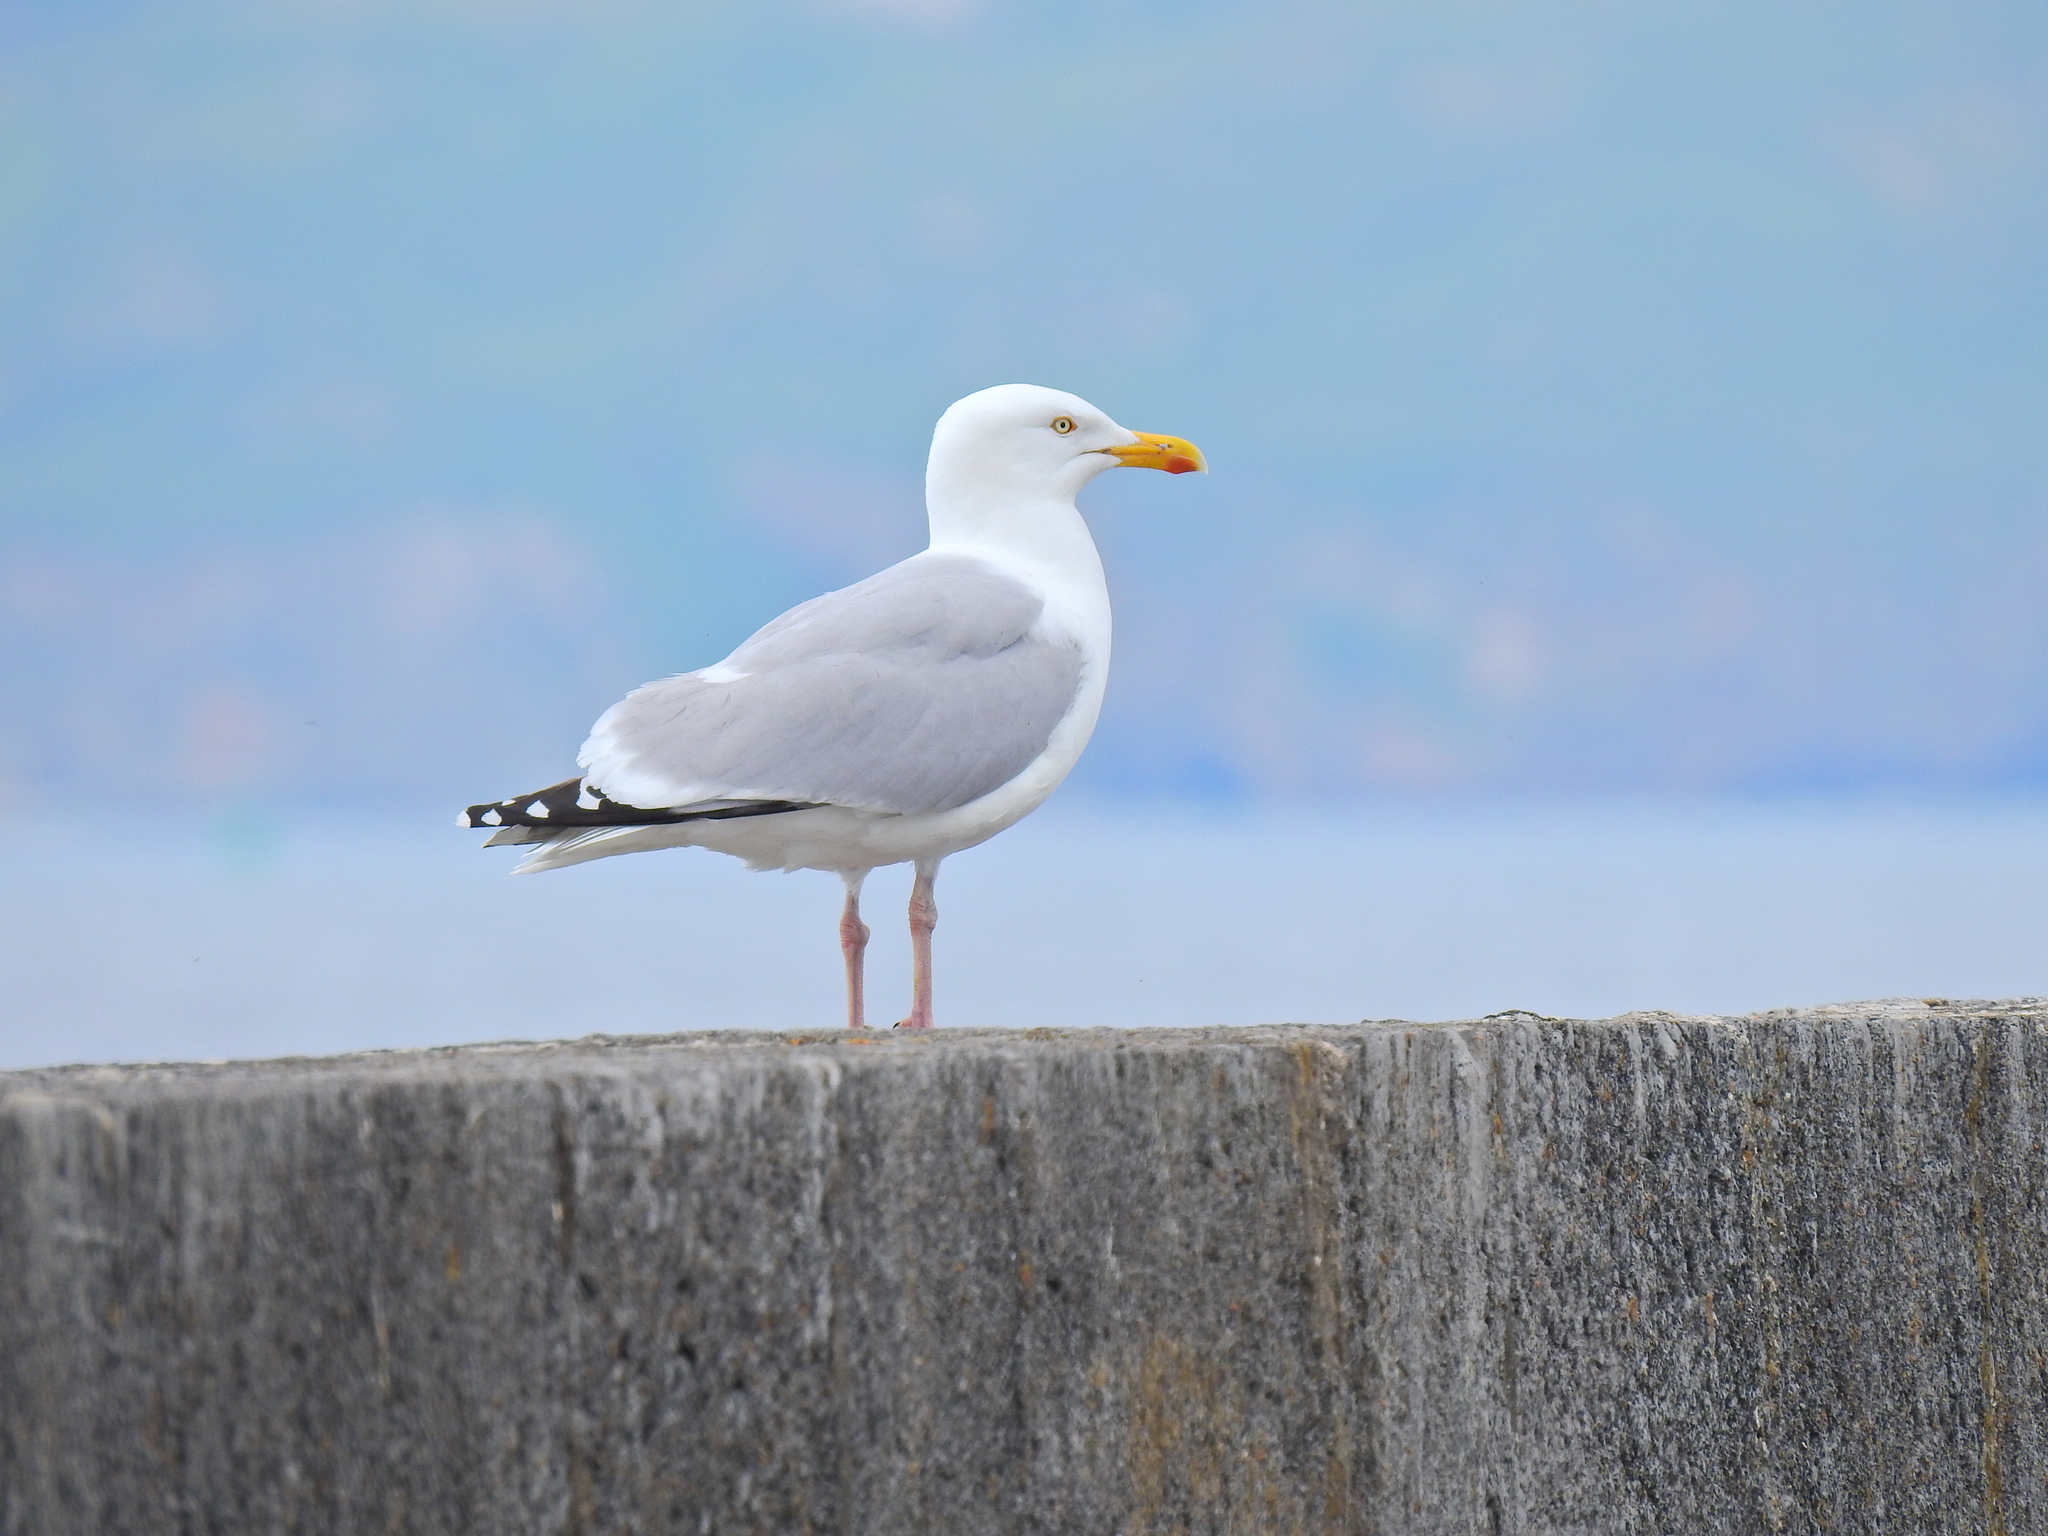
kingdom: Animalia
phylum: Chordata
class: Aves
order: Charadriiformes
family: Laridae
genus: Larus
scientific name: Larus argentatus
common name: Herring gull
